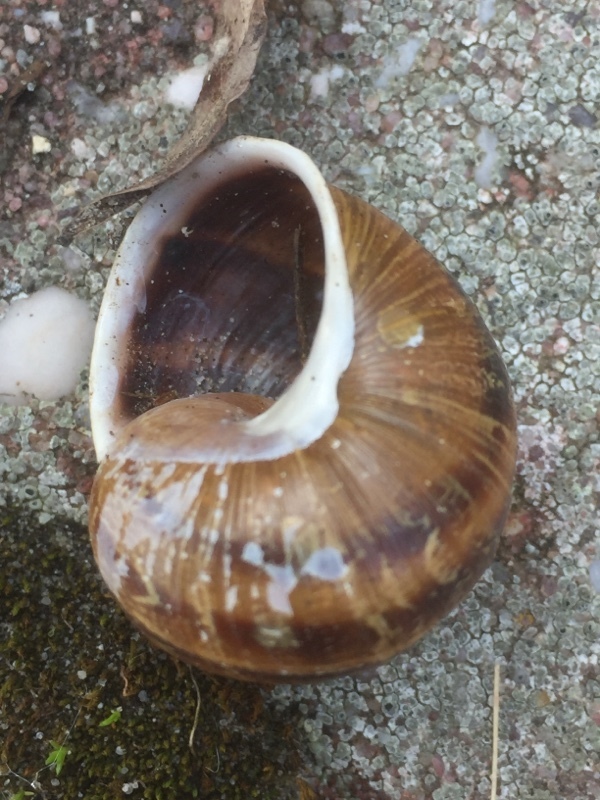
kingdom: Animalia
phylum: Mollusca
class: Gastropoda
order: Stylommatophora
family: Helicidae
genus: Cornu
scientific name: Cornu aspersum
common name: Brown garden snail
